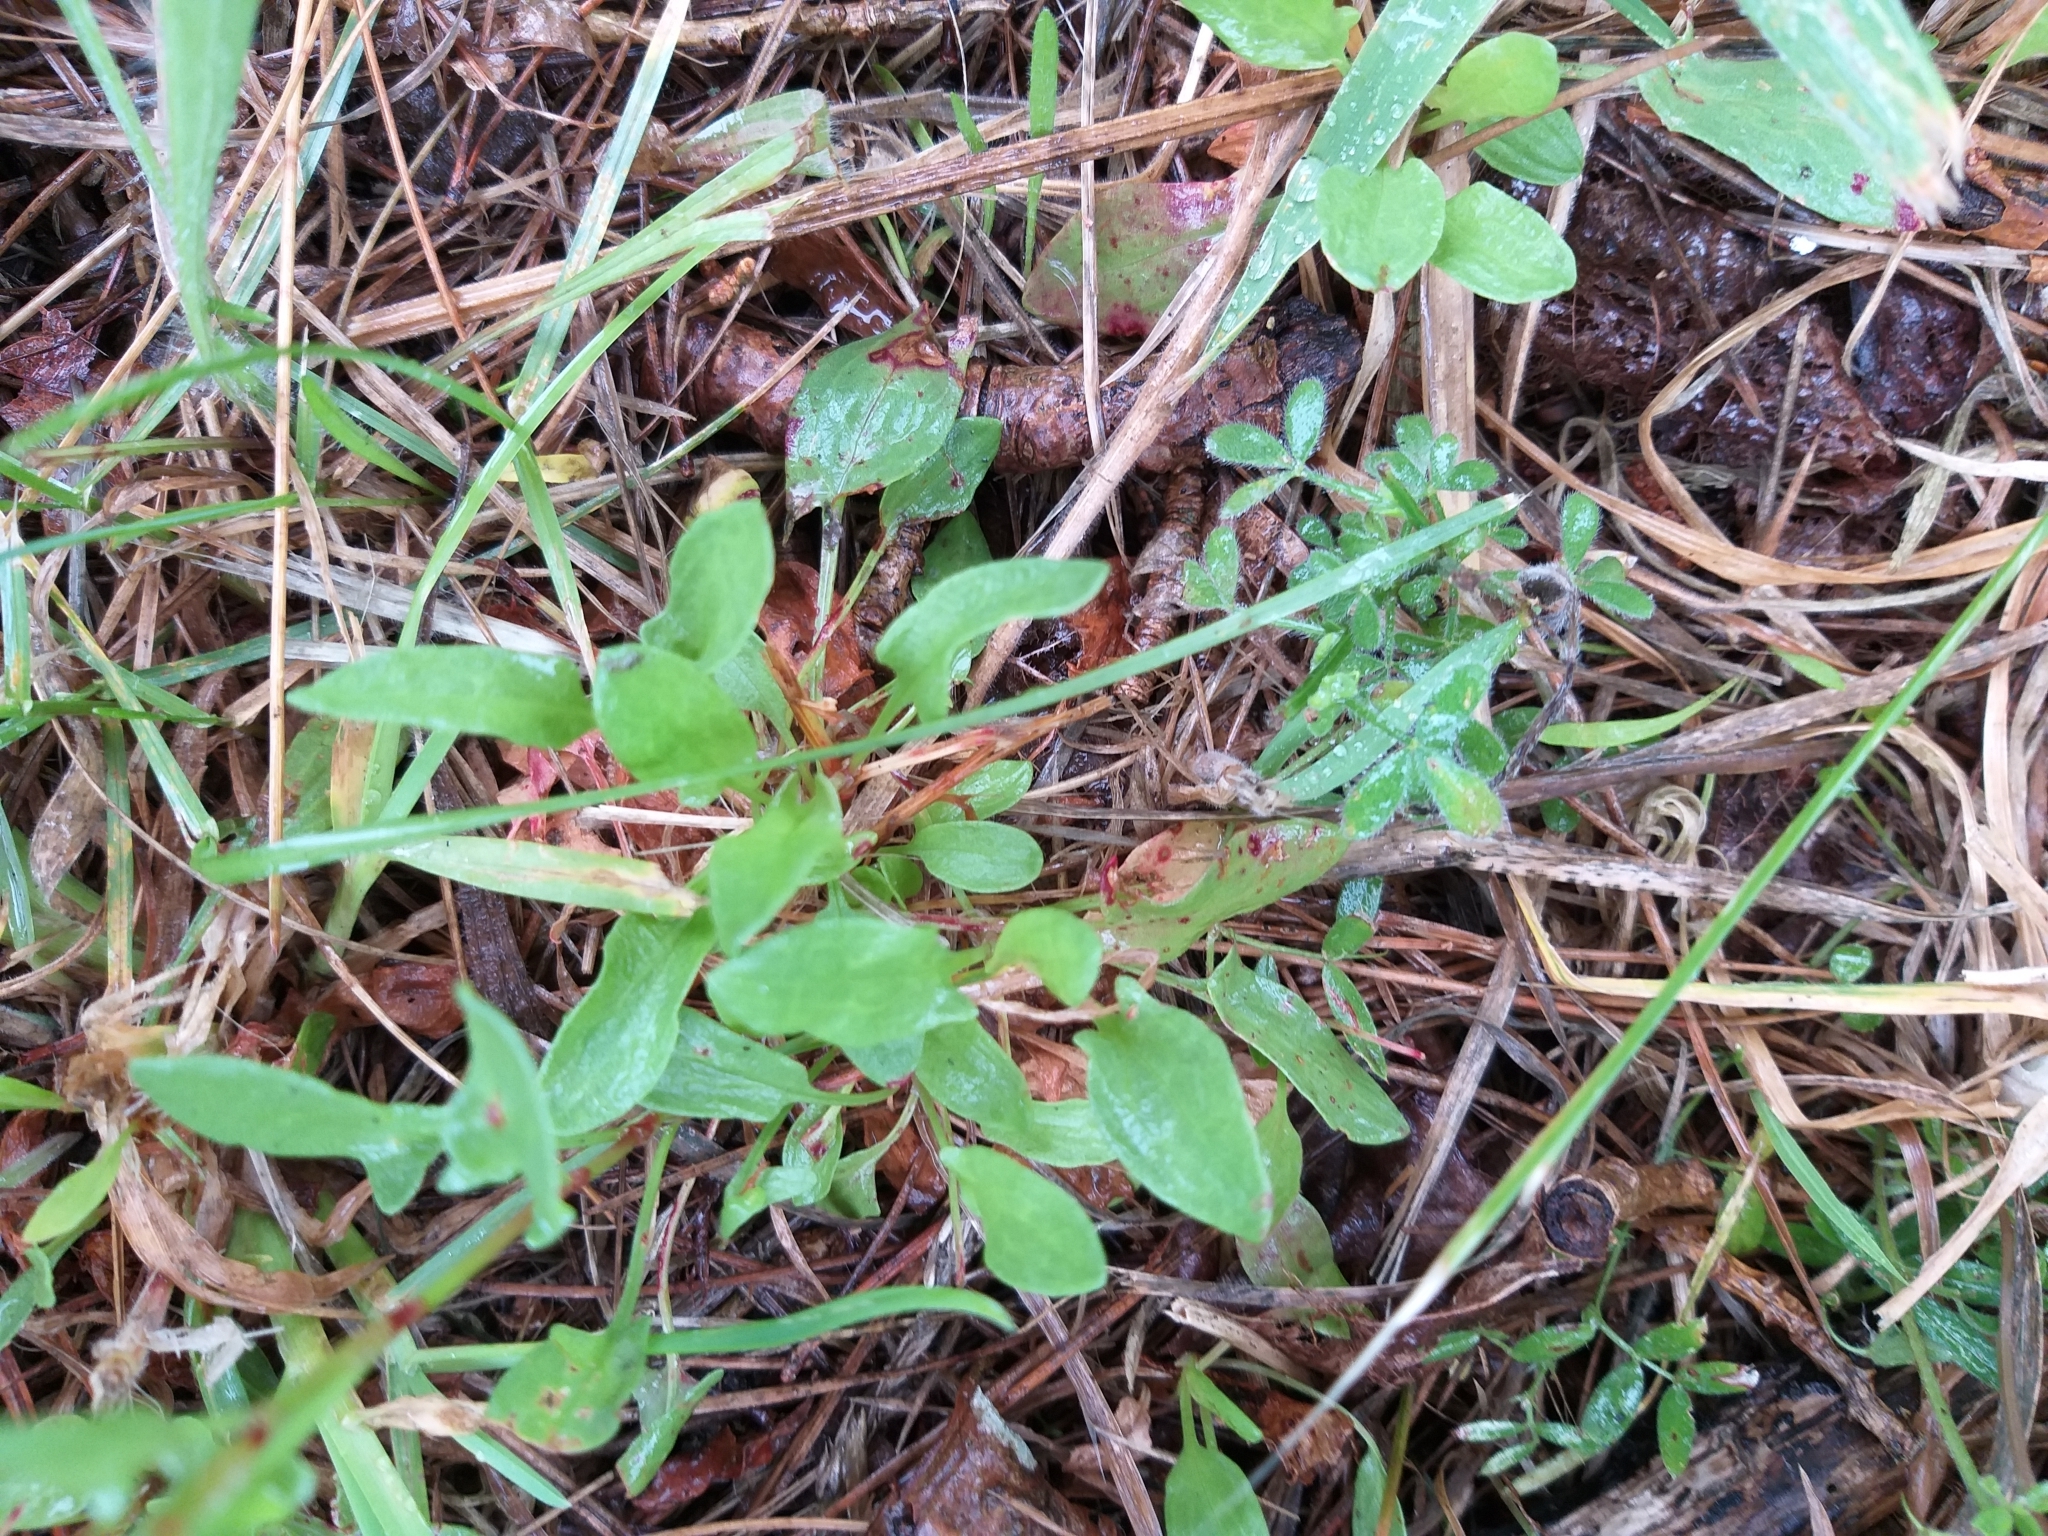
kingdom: Plantae
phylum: Tracheophyta
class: Magnoliopsida
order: Caryophyllales
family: Polygonaceae
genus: Rumex
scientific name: Rumex acetosella
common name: Common sheep sorrel
